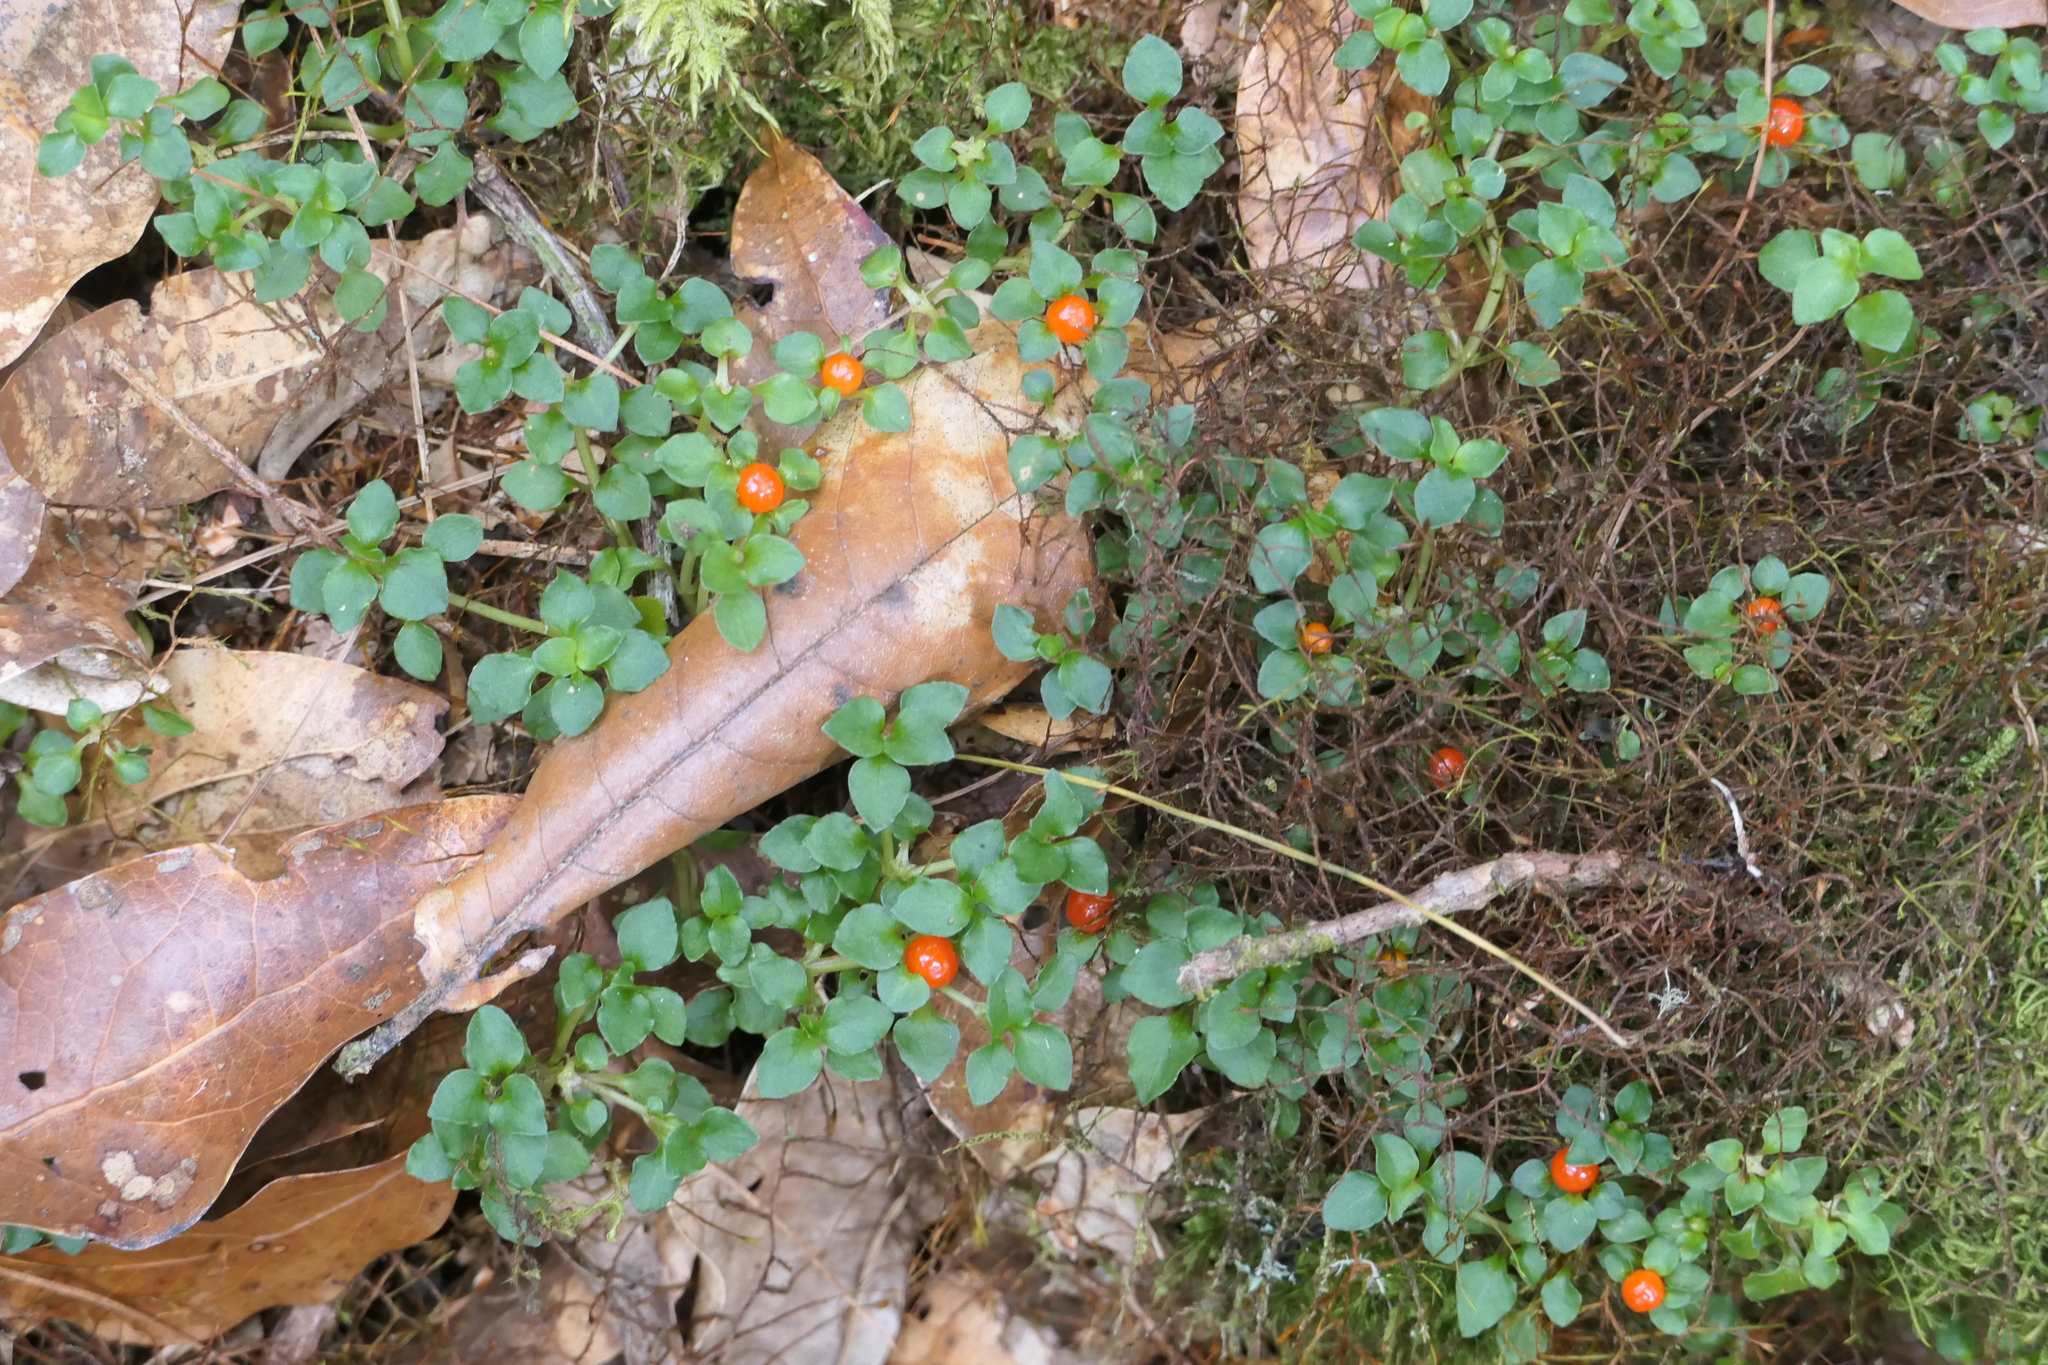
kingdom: Plantae
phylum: Tracheophyta
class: Magnoliopsida
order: Gentianales
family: Rubiaceae
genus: Nertera
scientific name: Nertera granadensis
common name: Beadplant
